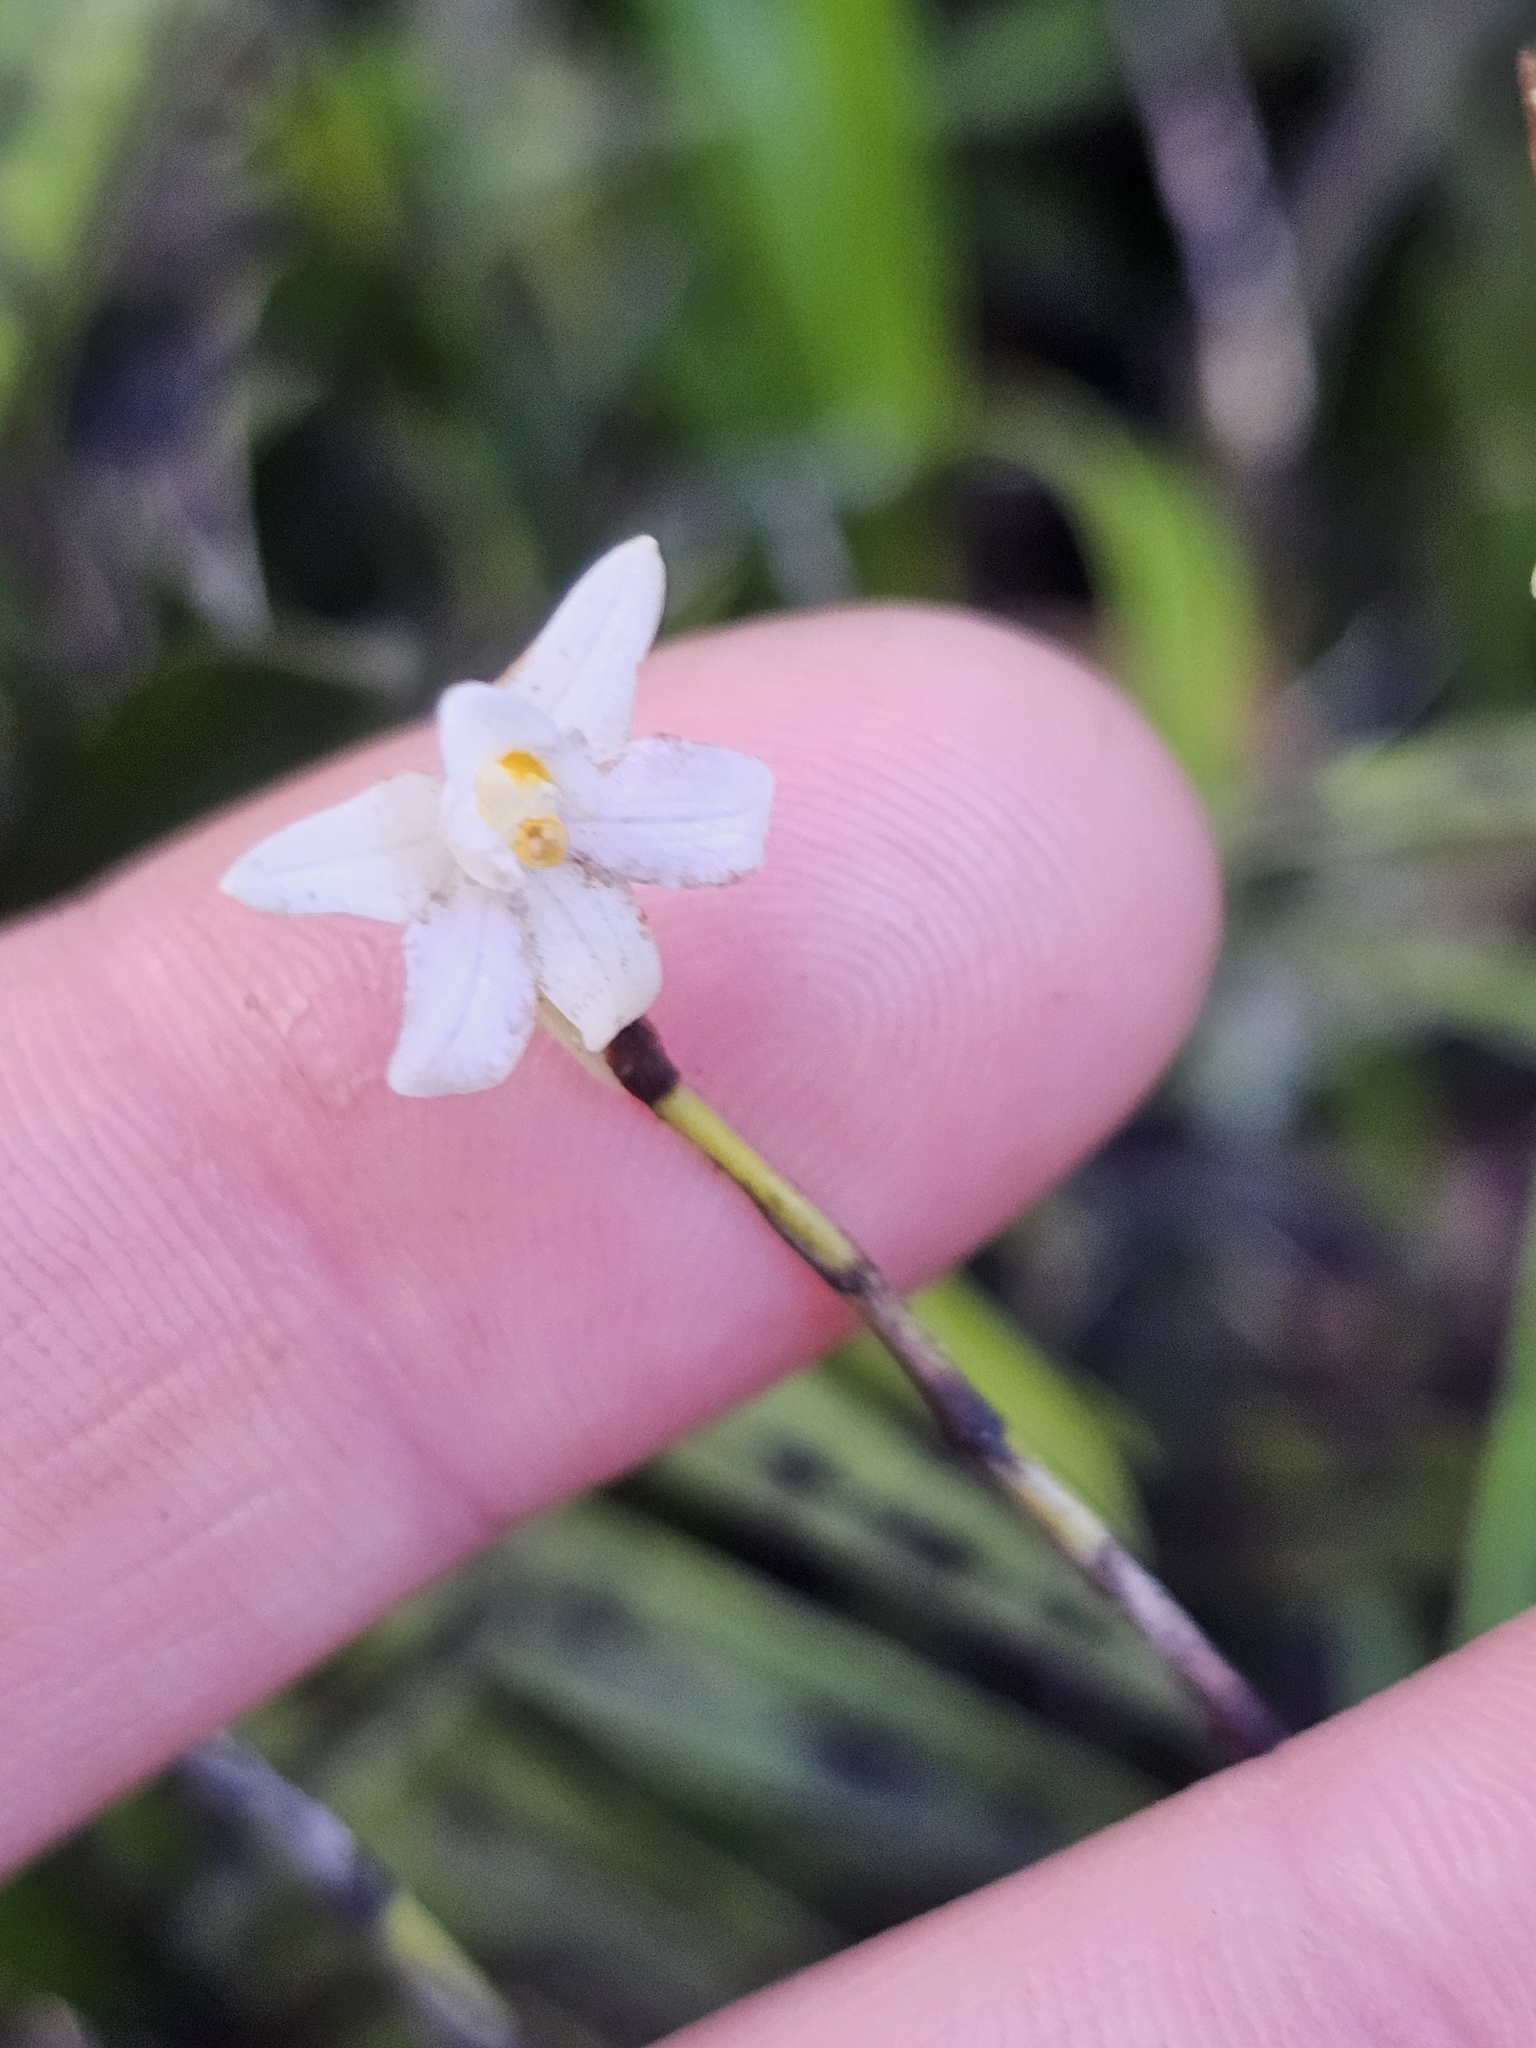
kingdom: Plantae
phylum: Tracheophyta
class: Liliopsida
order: Asparagales
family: Orchidaceae
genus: Earina
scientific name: Earina autumnalis
